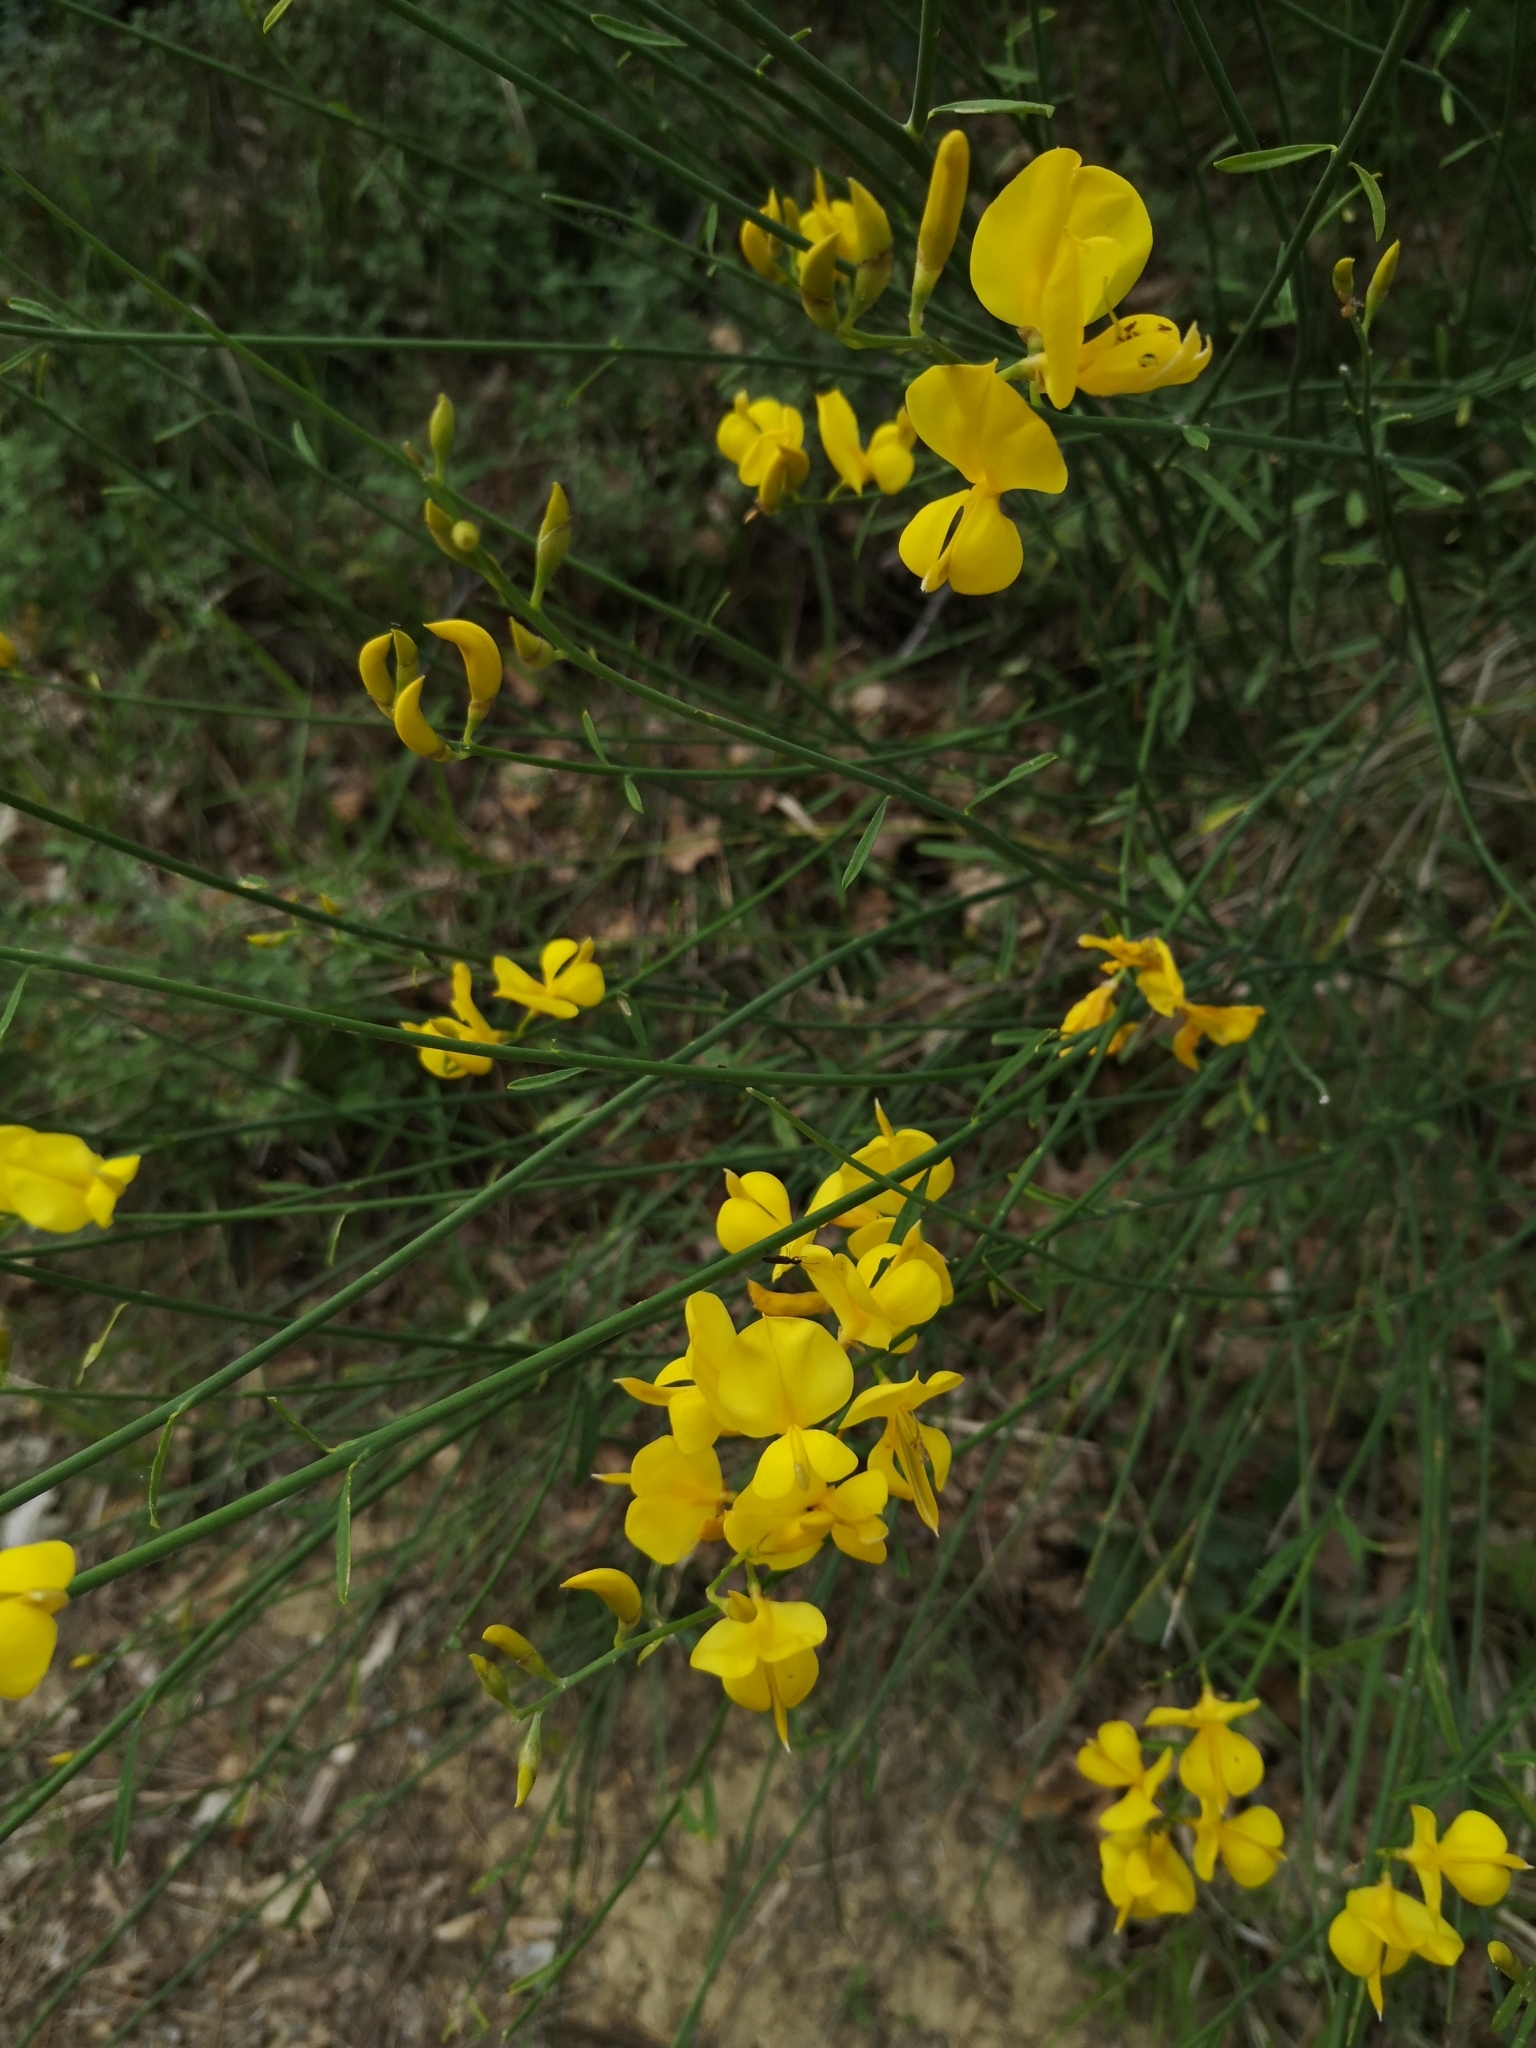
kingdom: Plantae
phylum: Tracheophyta
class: Magnoliopsida
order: Fabales
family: Fabaceae
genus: Spartium
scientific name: Spartium junceum
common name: Spanish broom
